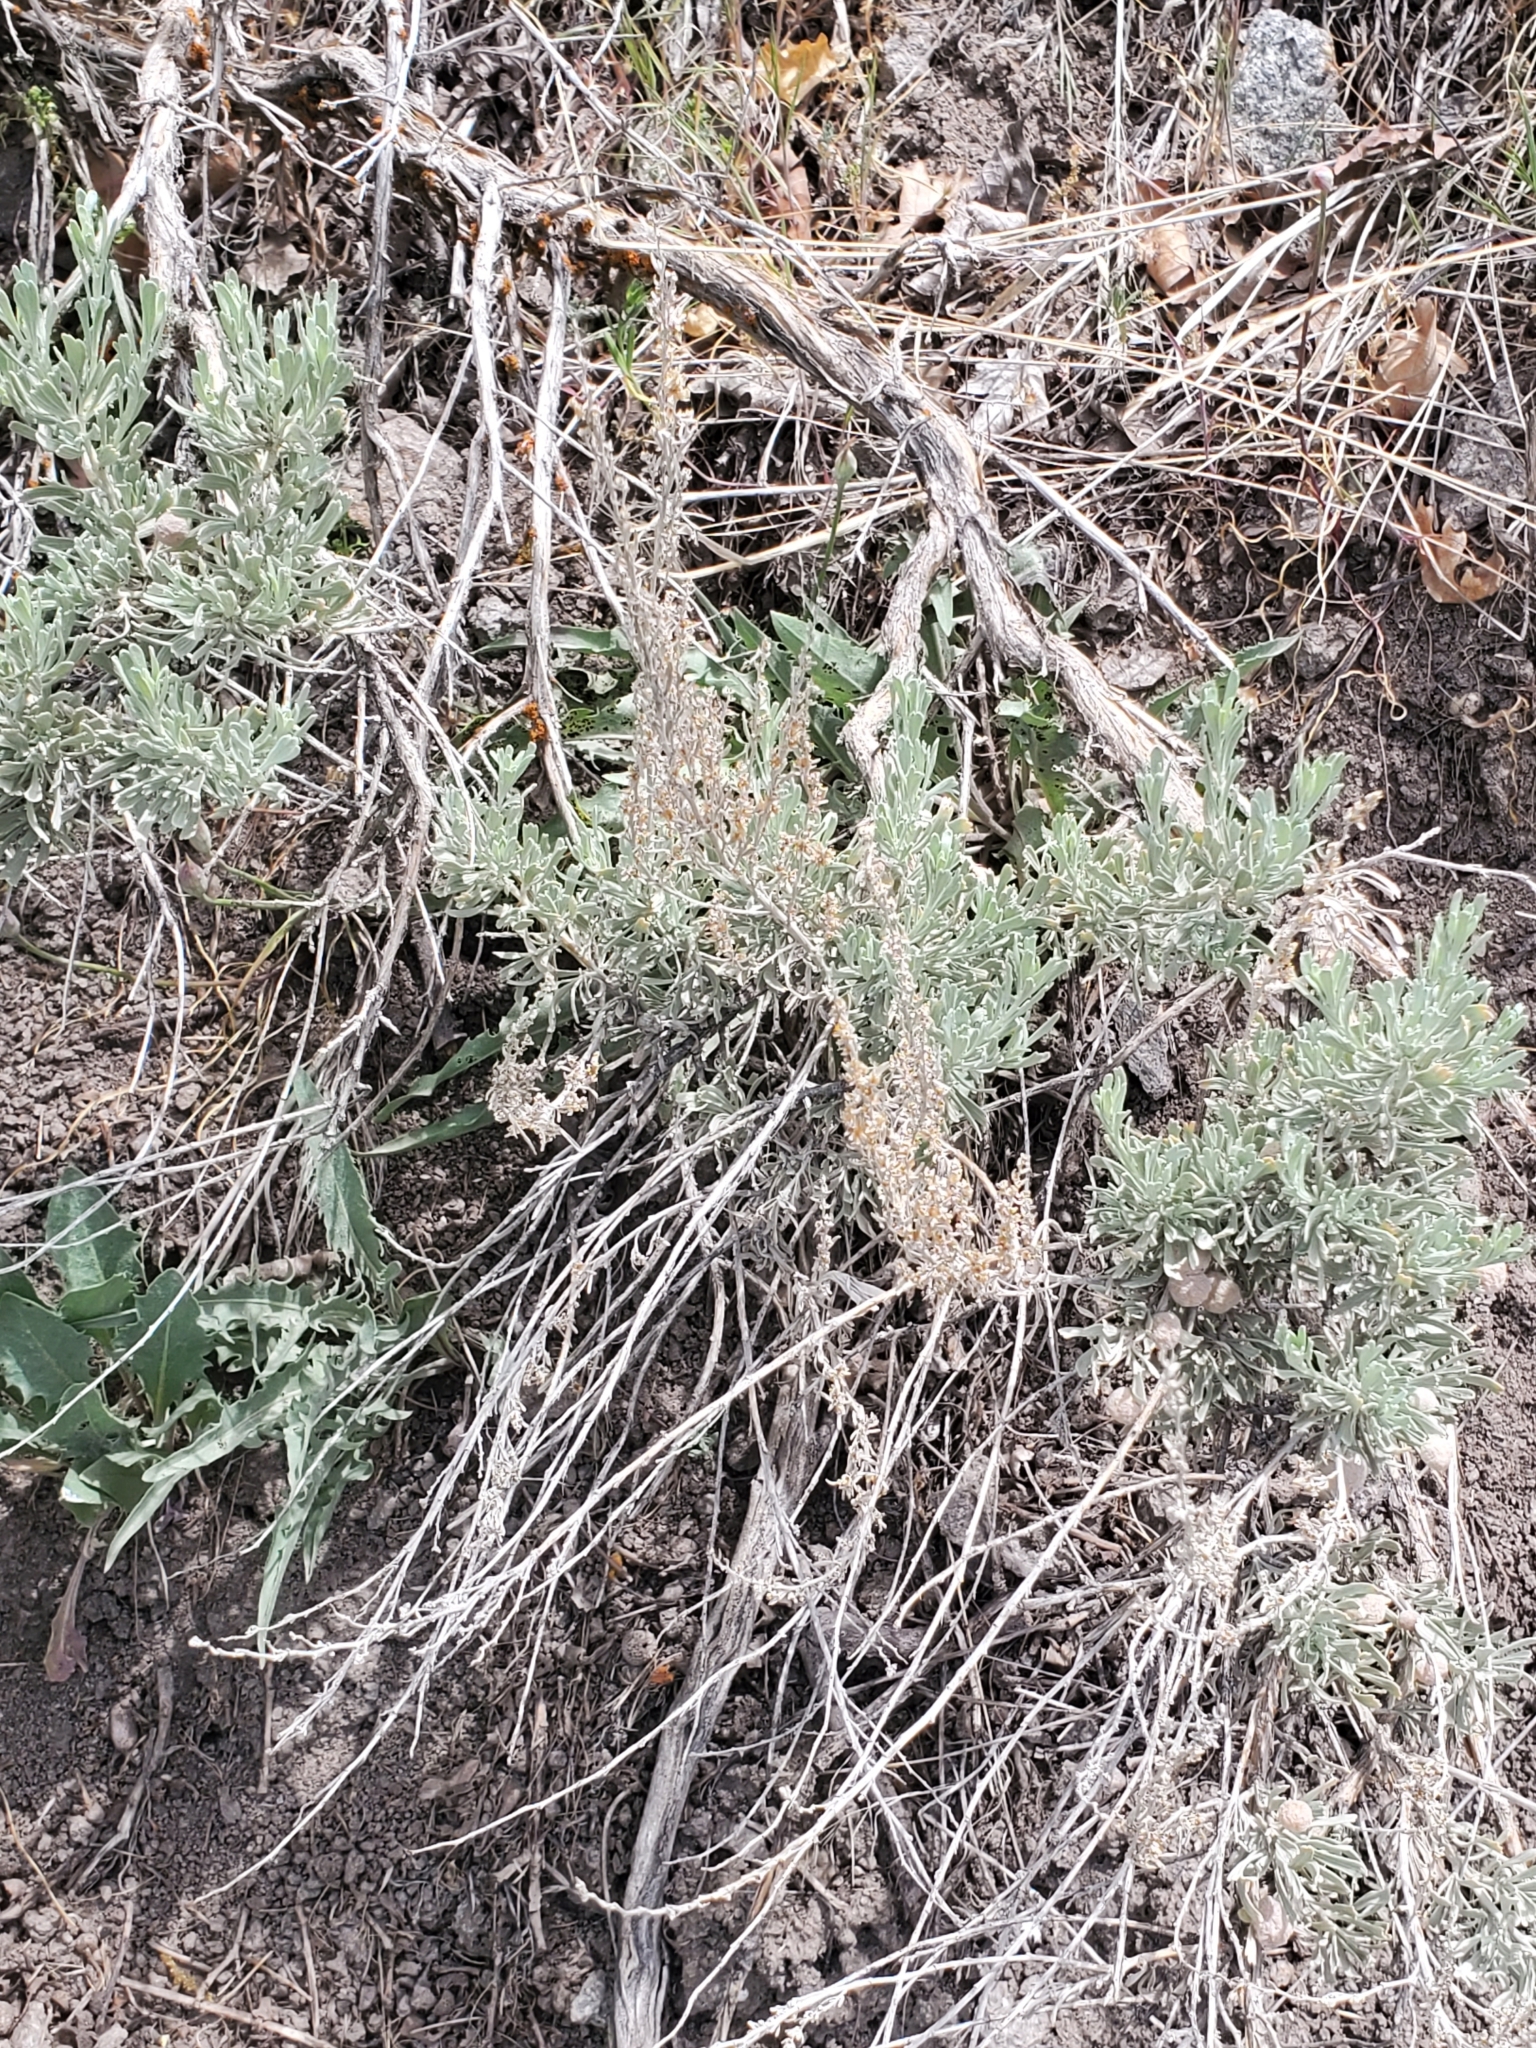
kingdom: Plantae
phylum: Tracheophyta
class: Magnoliopsida
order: Asterales
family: Asteraceae
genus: Artemisia
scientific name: Artemisia tridentata
